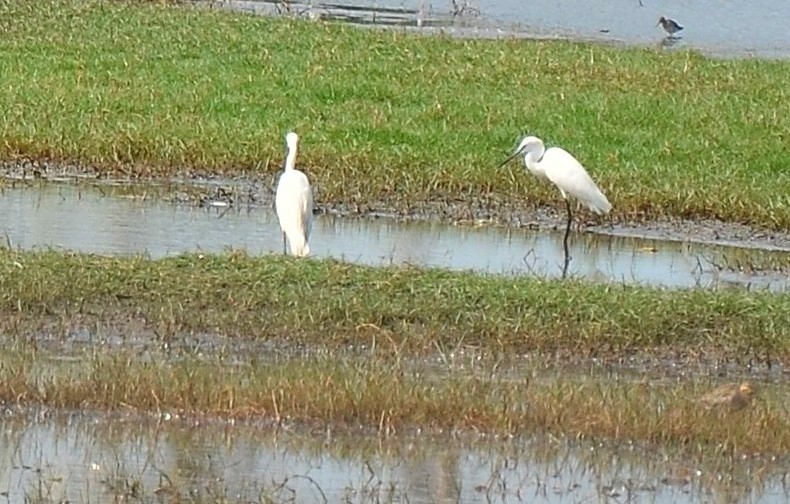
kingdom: Animalia
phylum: Chordata
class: Aves
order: Pelecaniformes
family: Ardeidae
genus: Egretta
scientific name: Egretta garzetta
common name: Little egret
